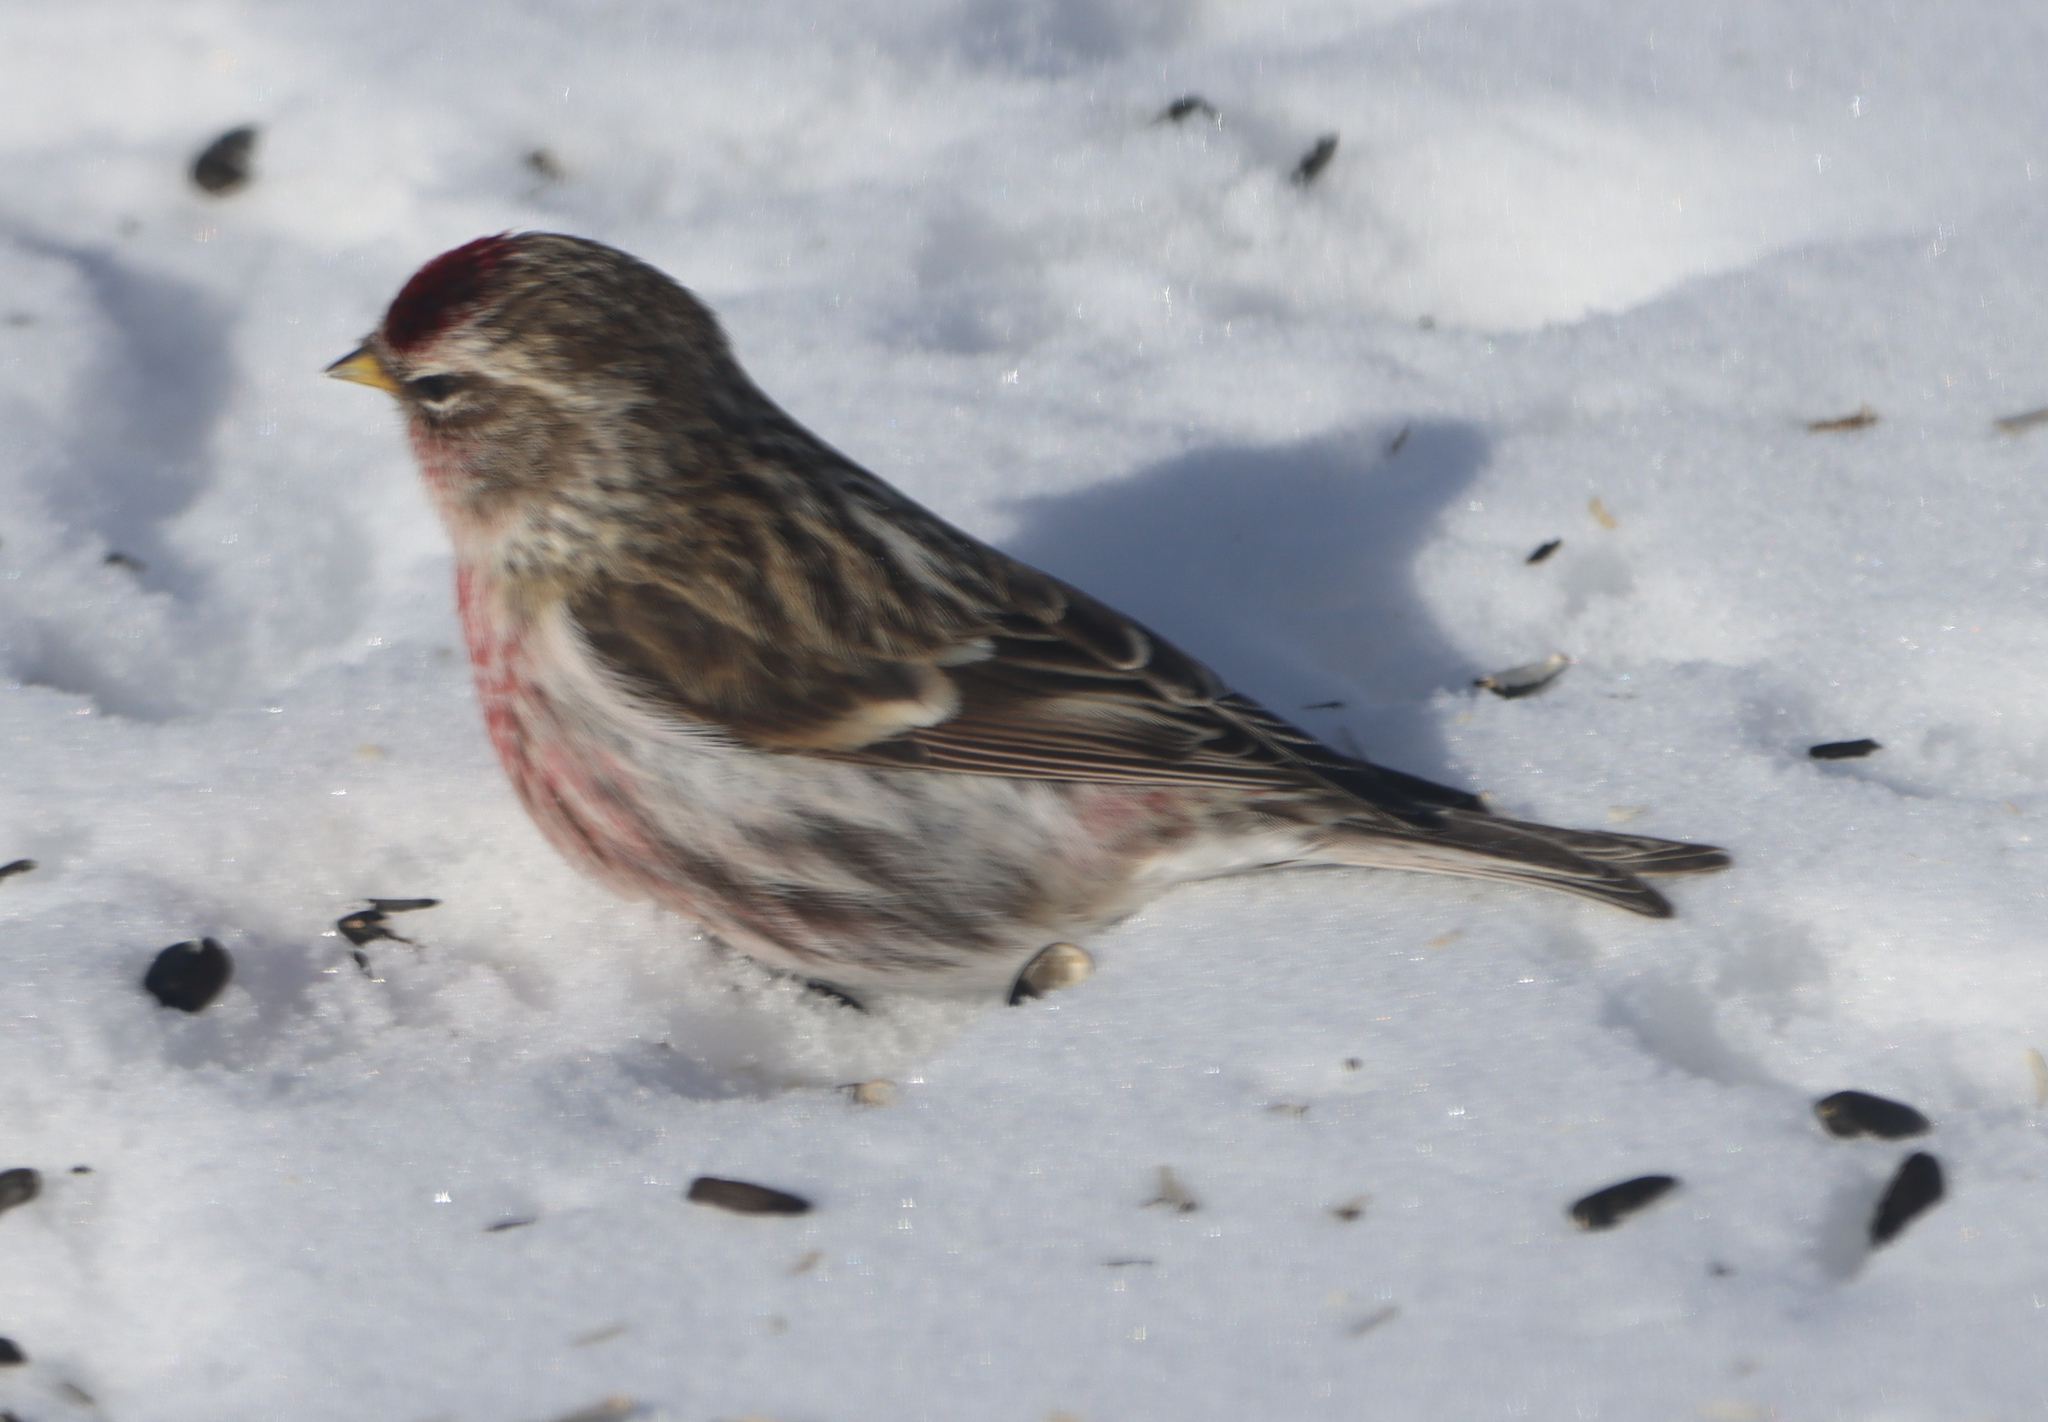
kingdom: Animalia
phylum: Chordata
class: Aves
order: Passeriformes
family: Fringillidae
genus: Acanthis
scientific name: Acanthis flammea
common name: Common redpoll
